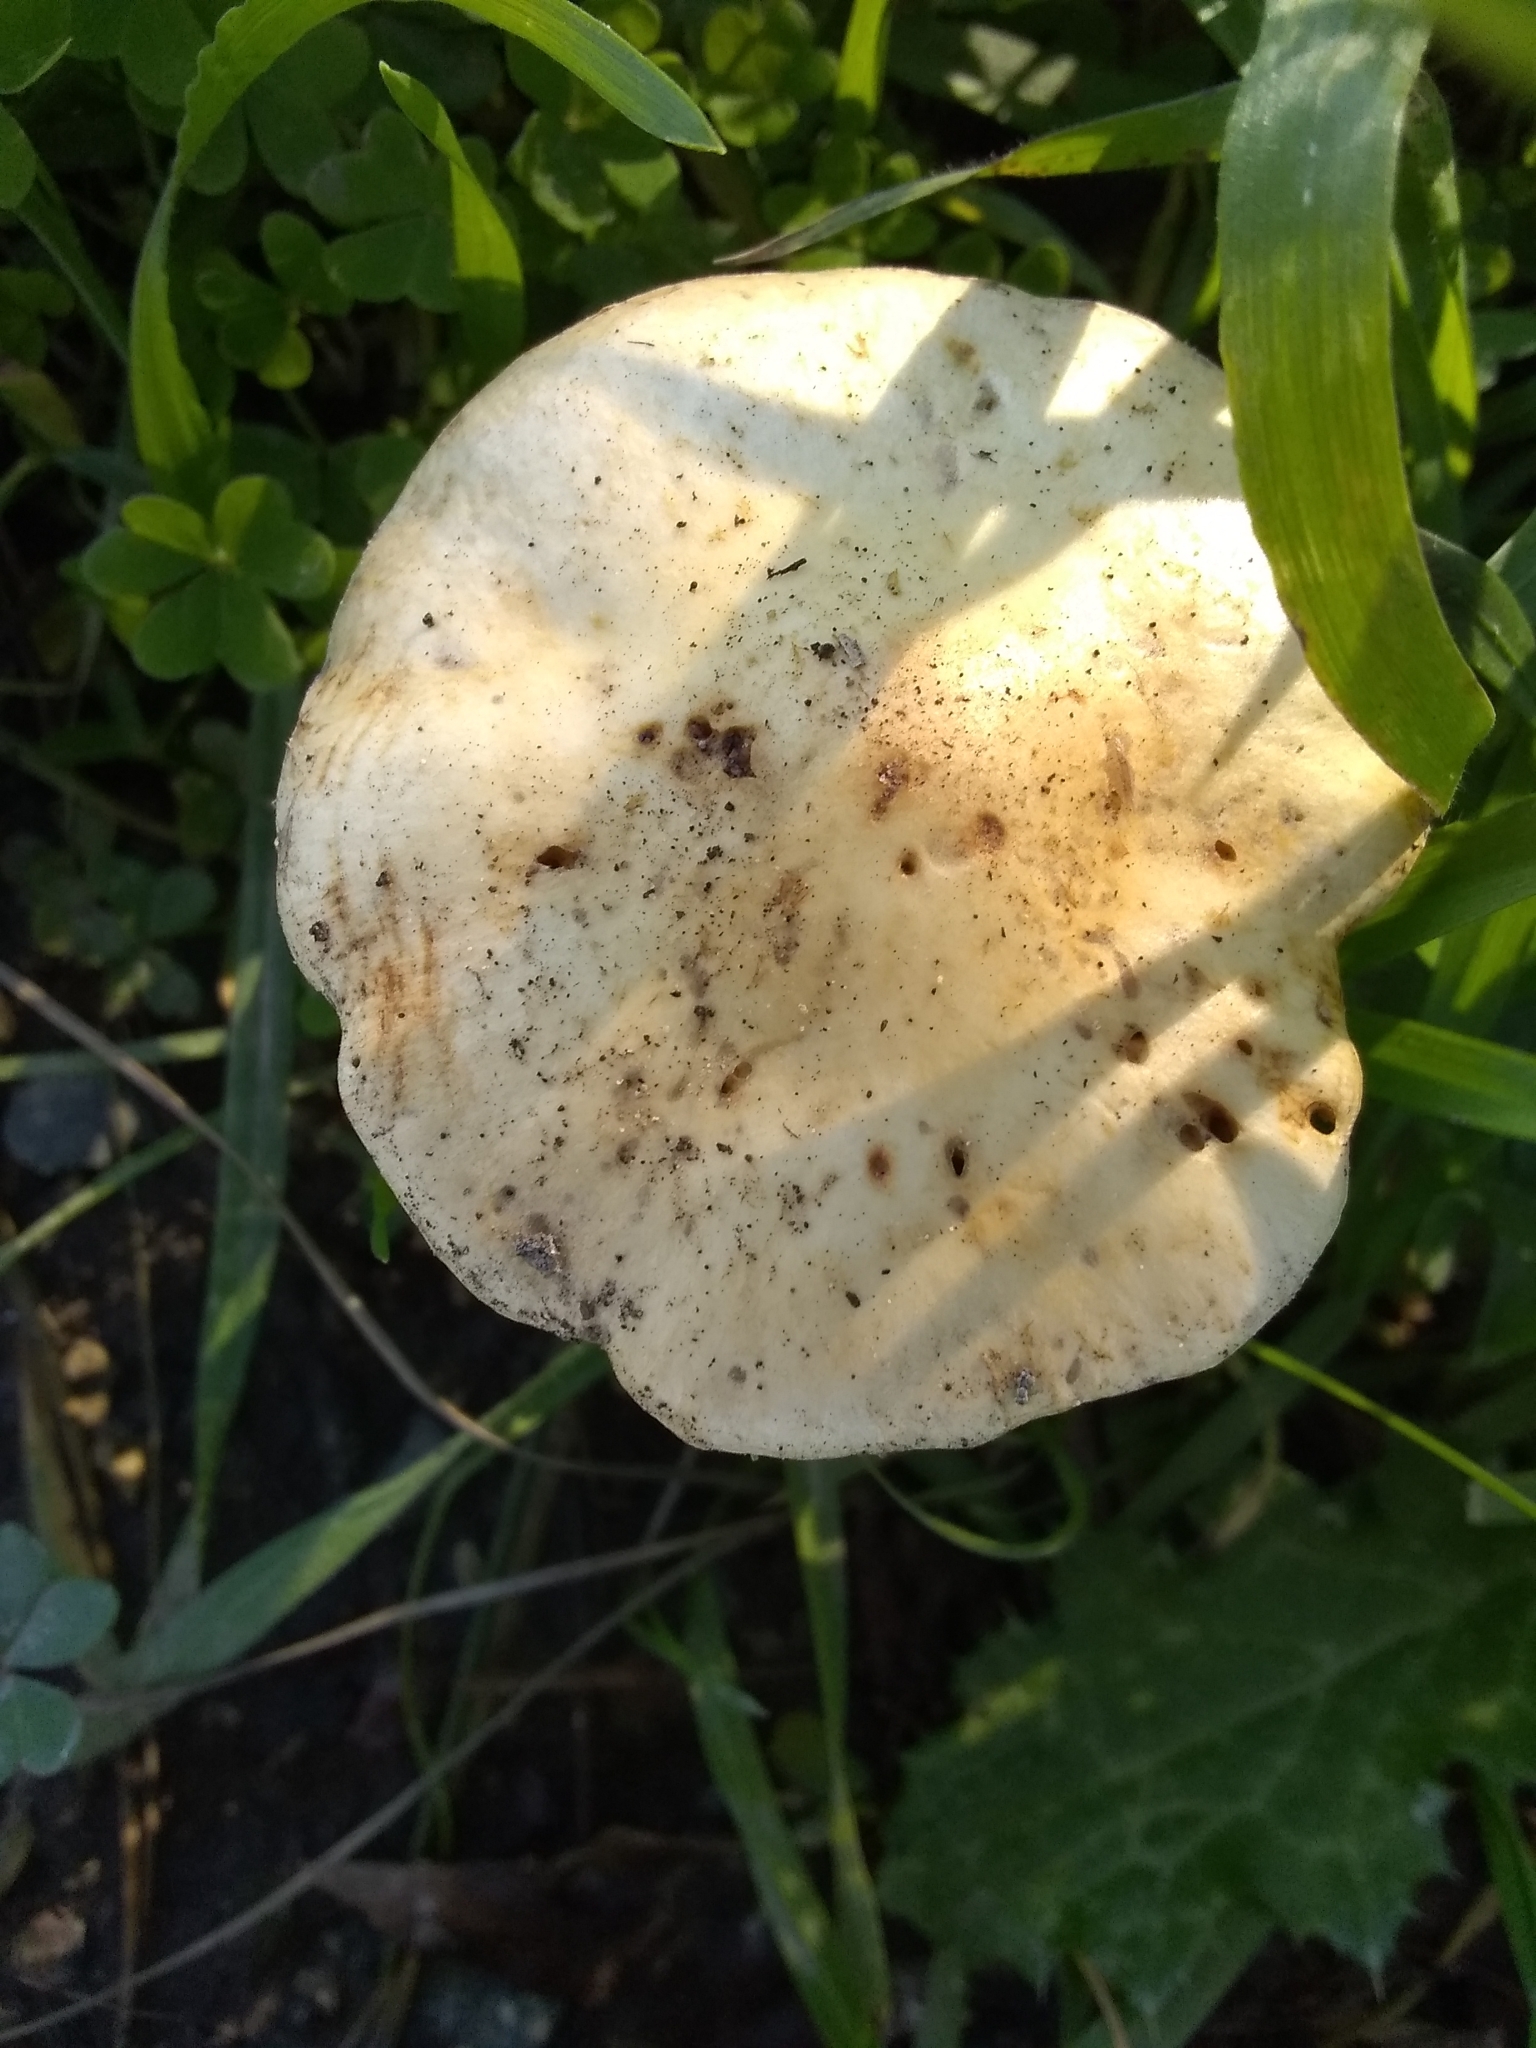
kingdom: Fungi
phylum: Basidiomycota
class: Agaricomycetes
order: Agaricales
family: Strophariaceae
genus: Leratiomyces
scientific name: Leratiomyces percevalii
